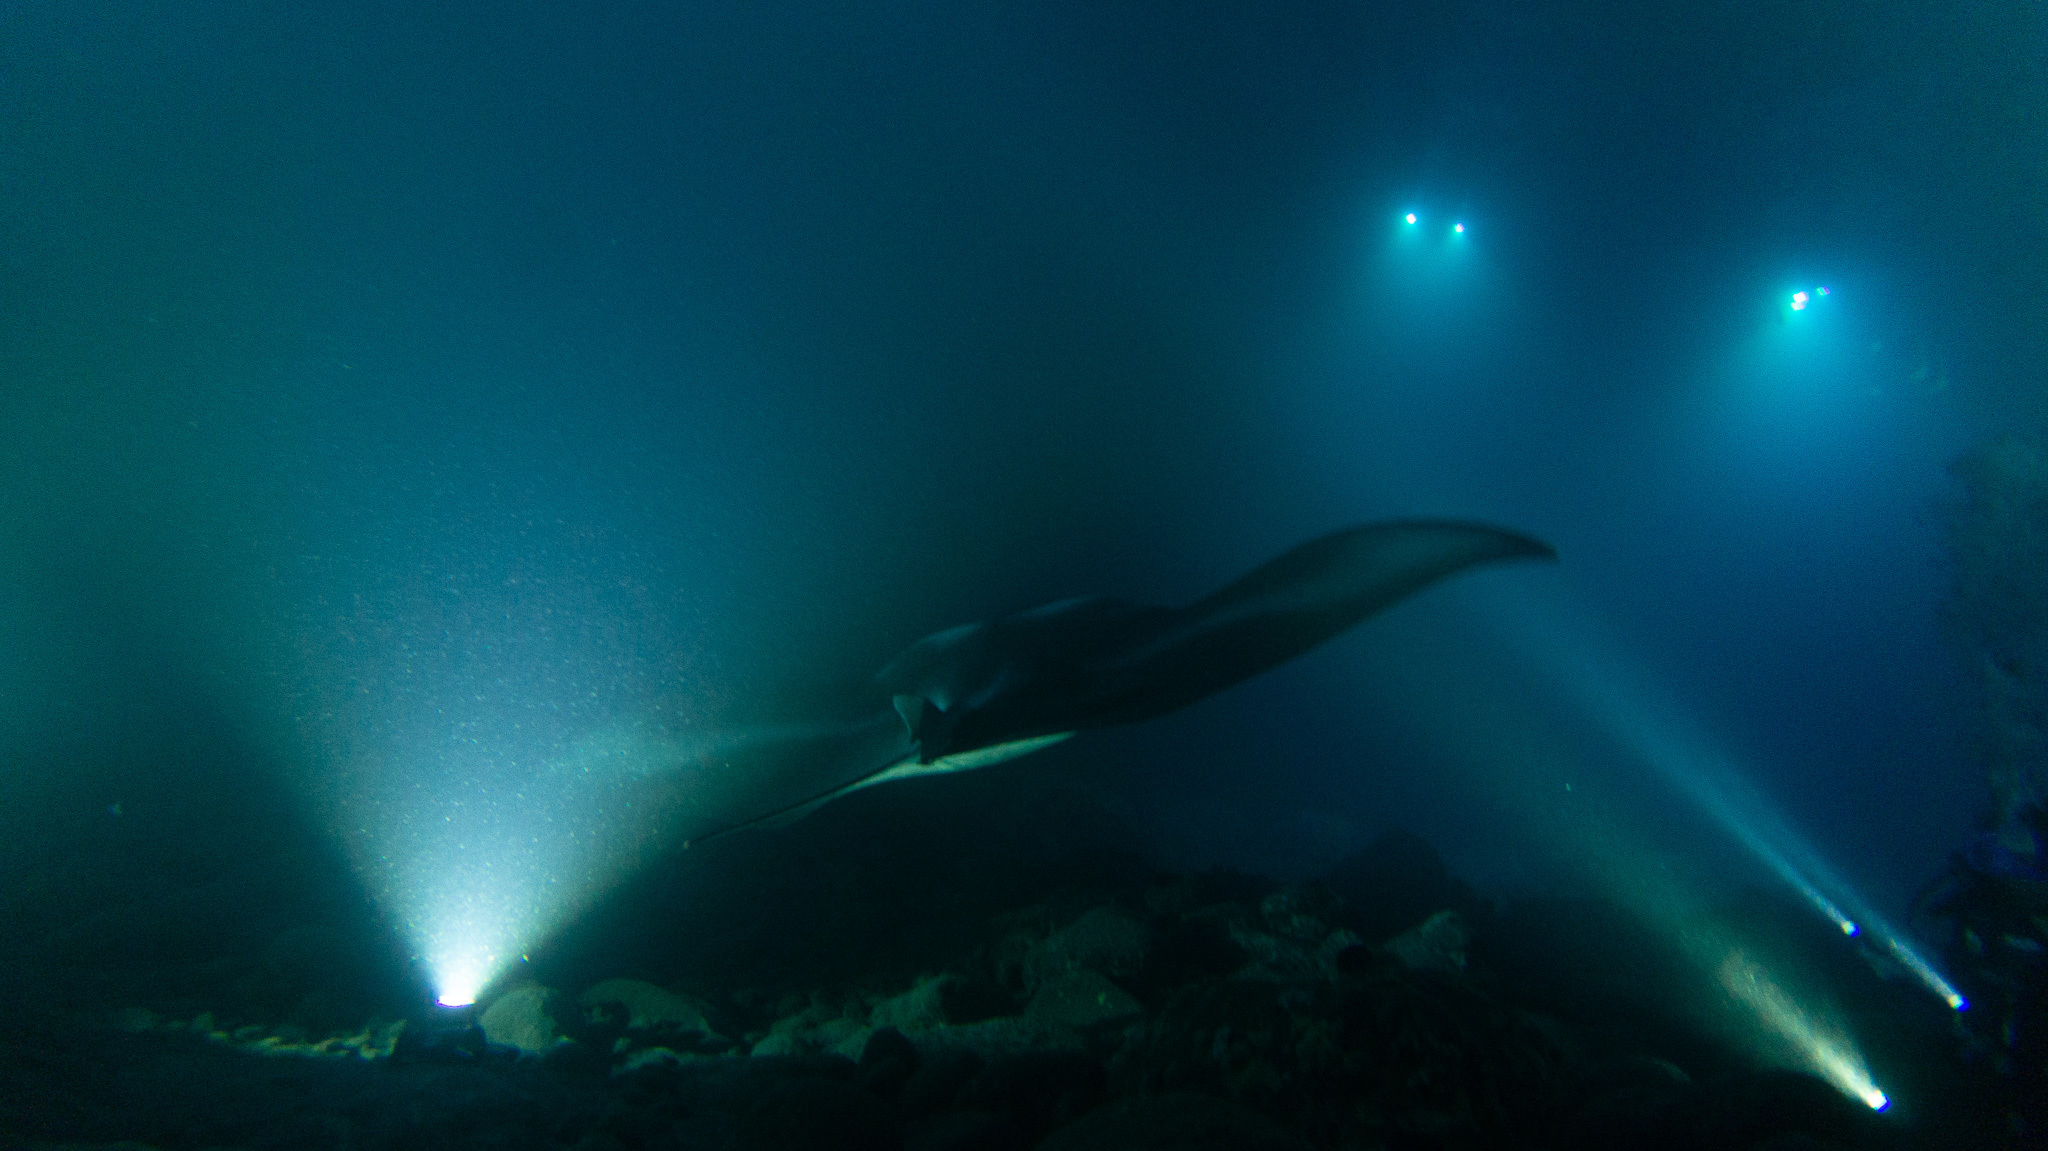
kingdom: Animalia
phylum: Chordata
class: Elasmobranchii
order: Myliobatiformes
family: Myliobatidae
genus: Mobula
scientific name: Mobula alfredi
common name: Reef manta ray
